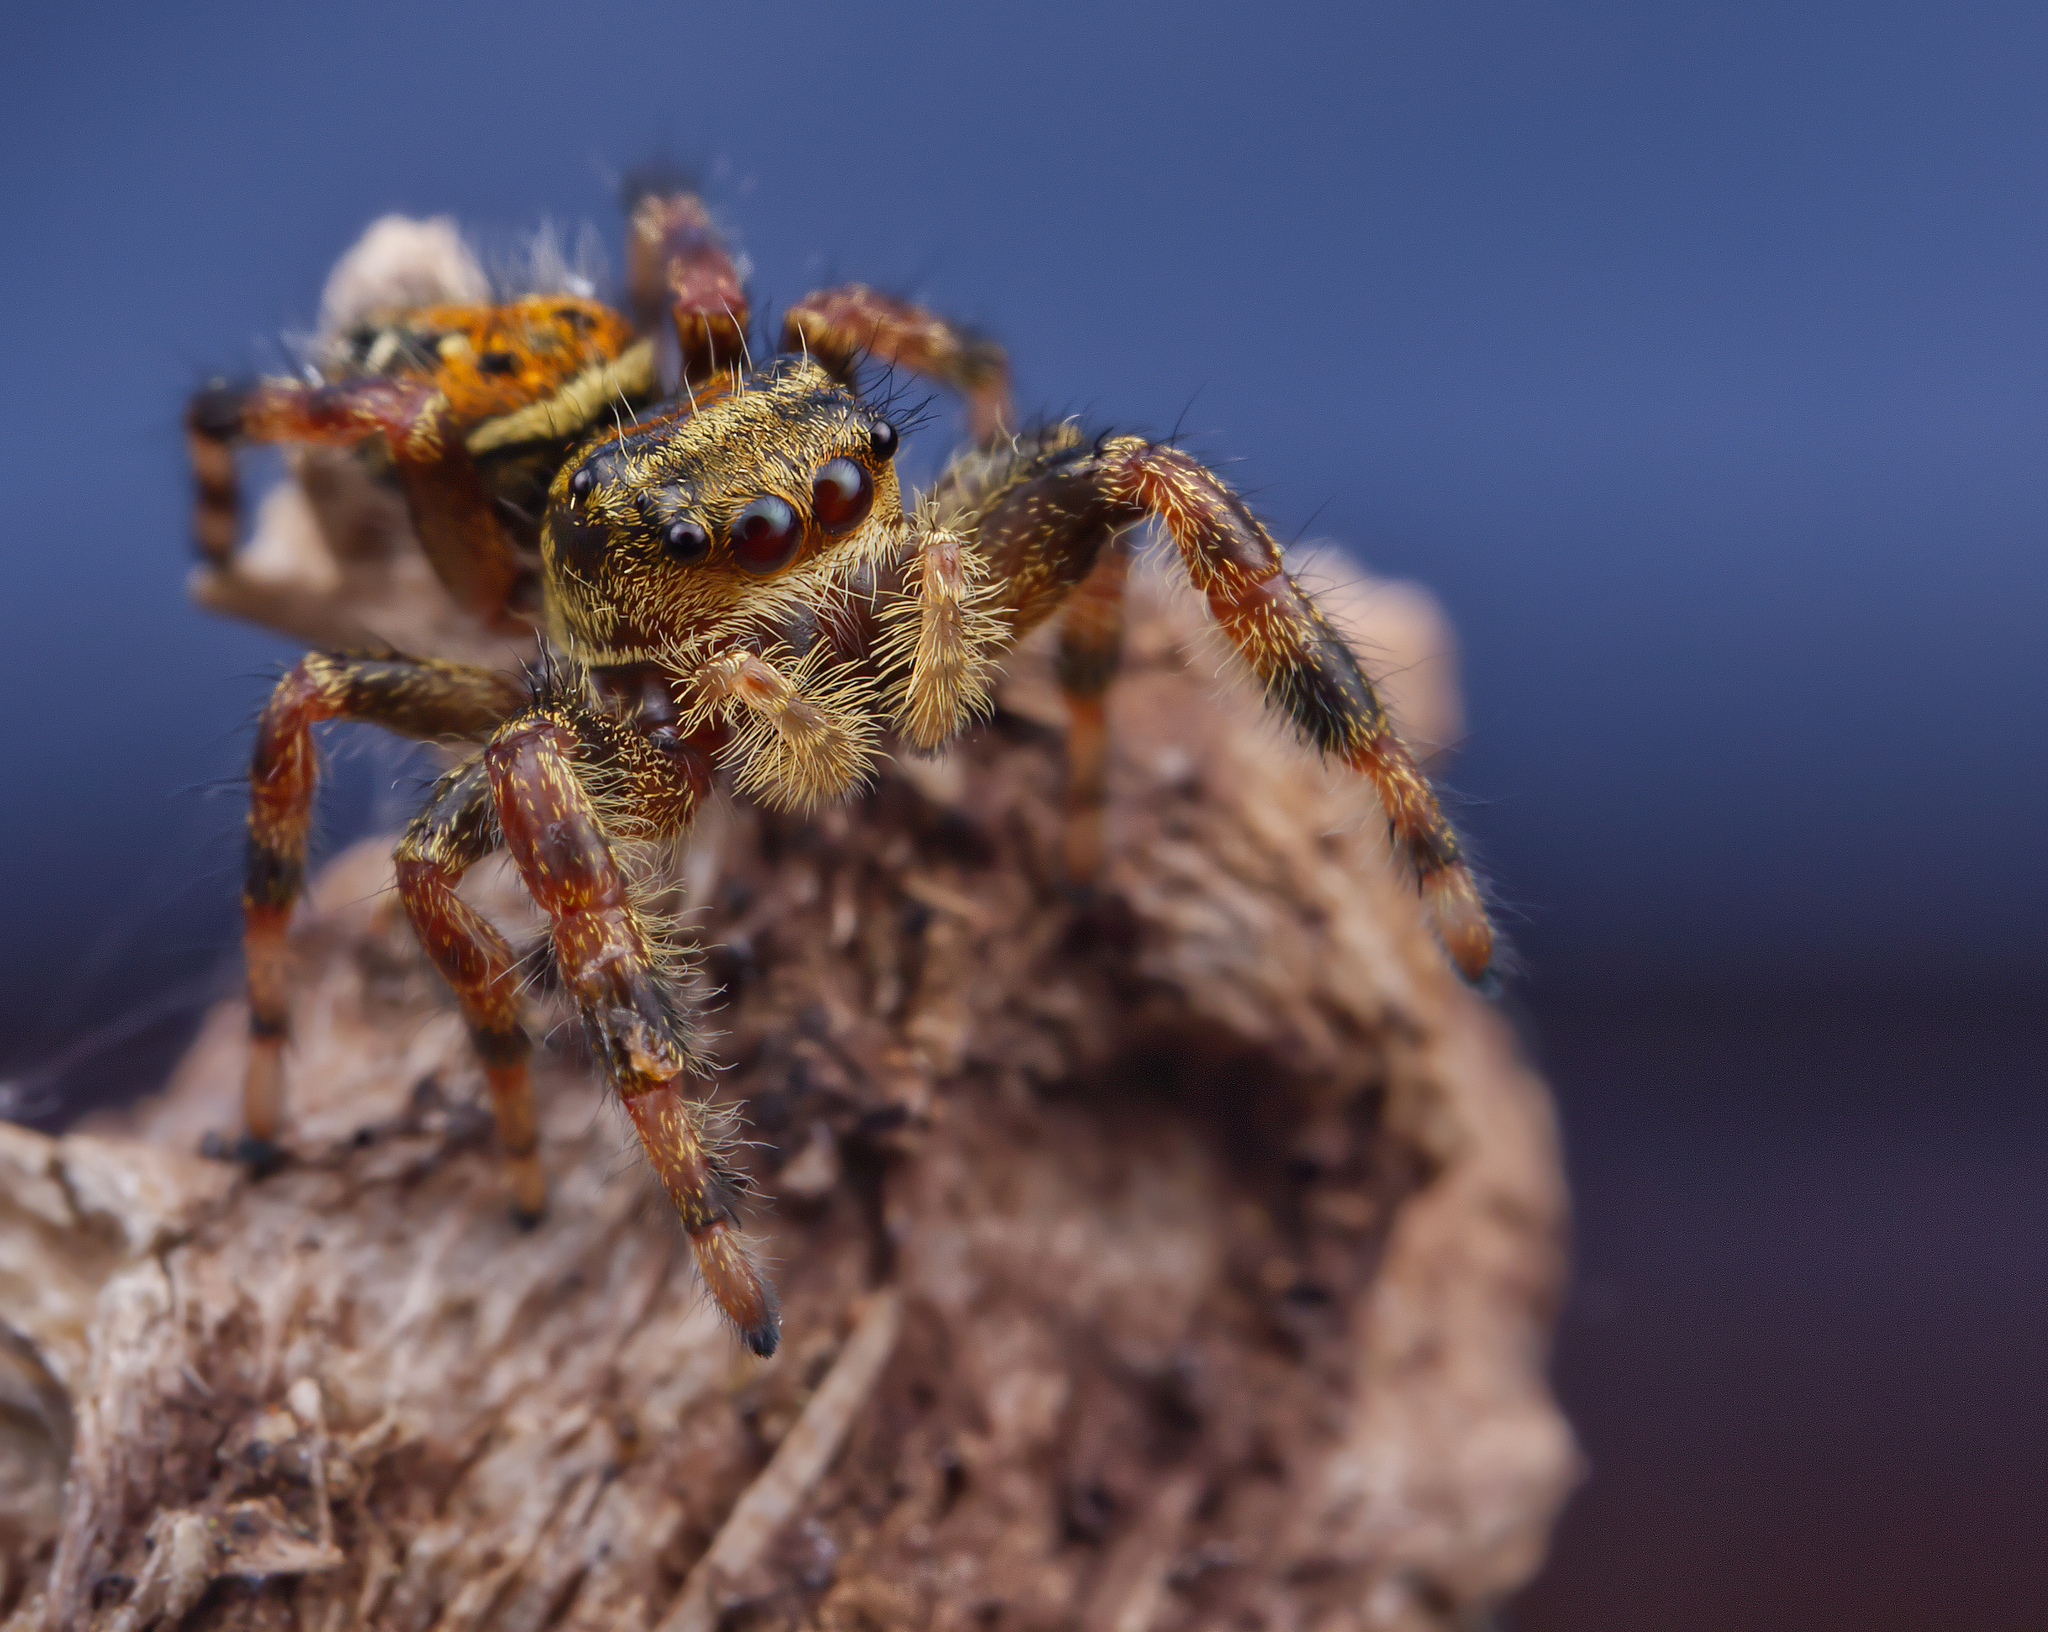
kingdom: Animalia
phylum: Arthropoda
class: Arachnida
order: Araneae
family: Salticidae
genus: Phidippus
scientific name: Phidippus clarus
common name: Brilliant jumping spider
